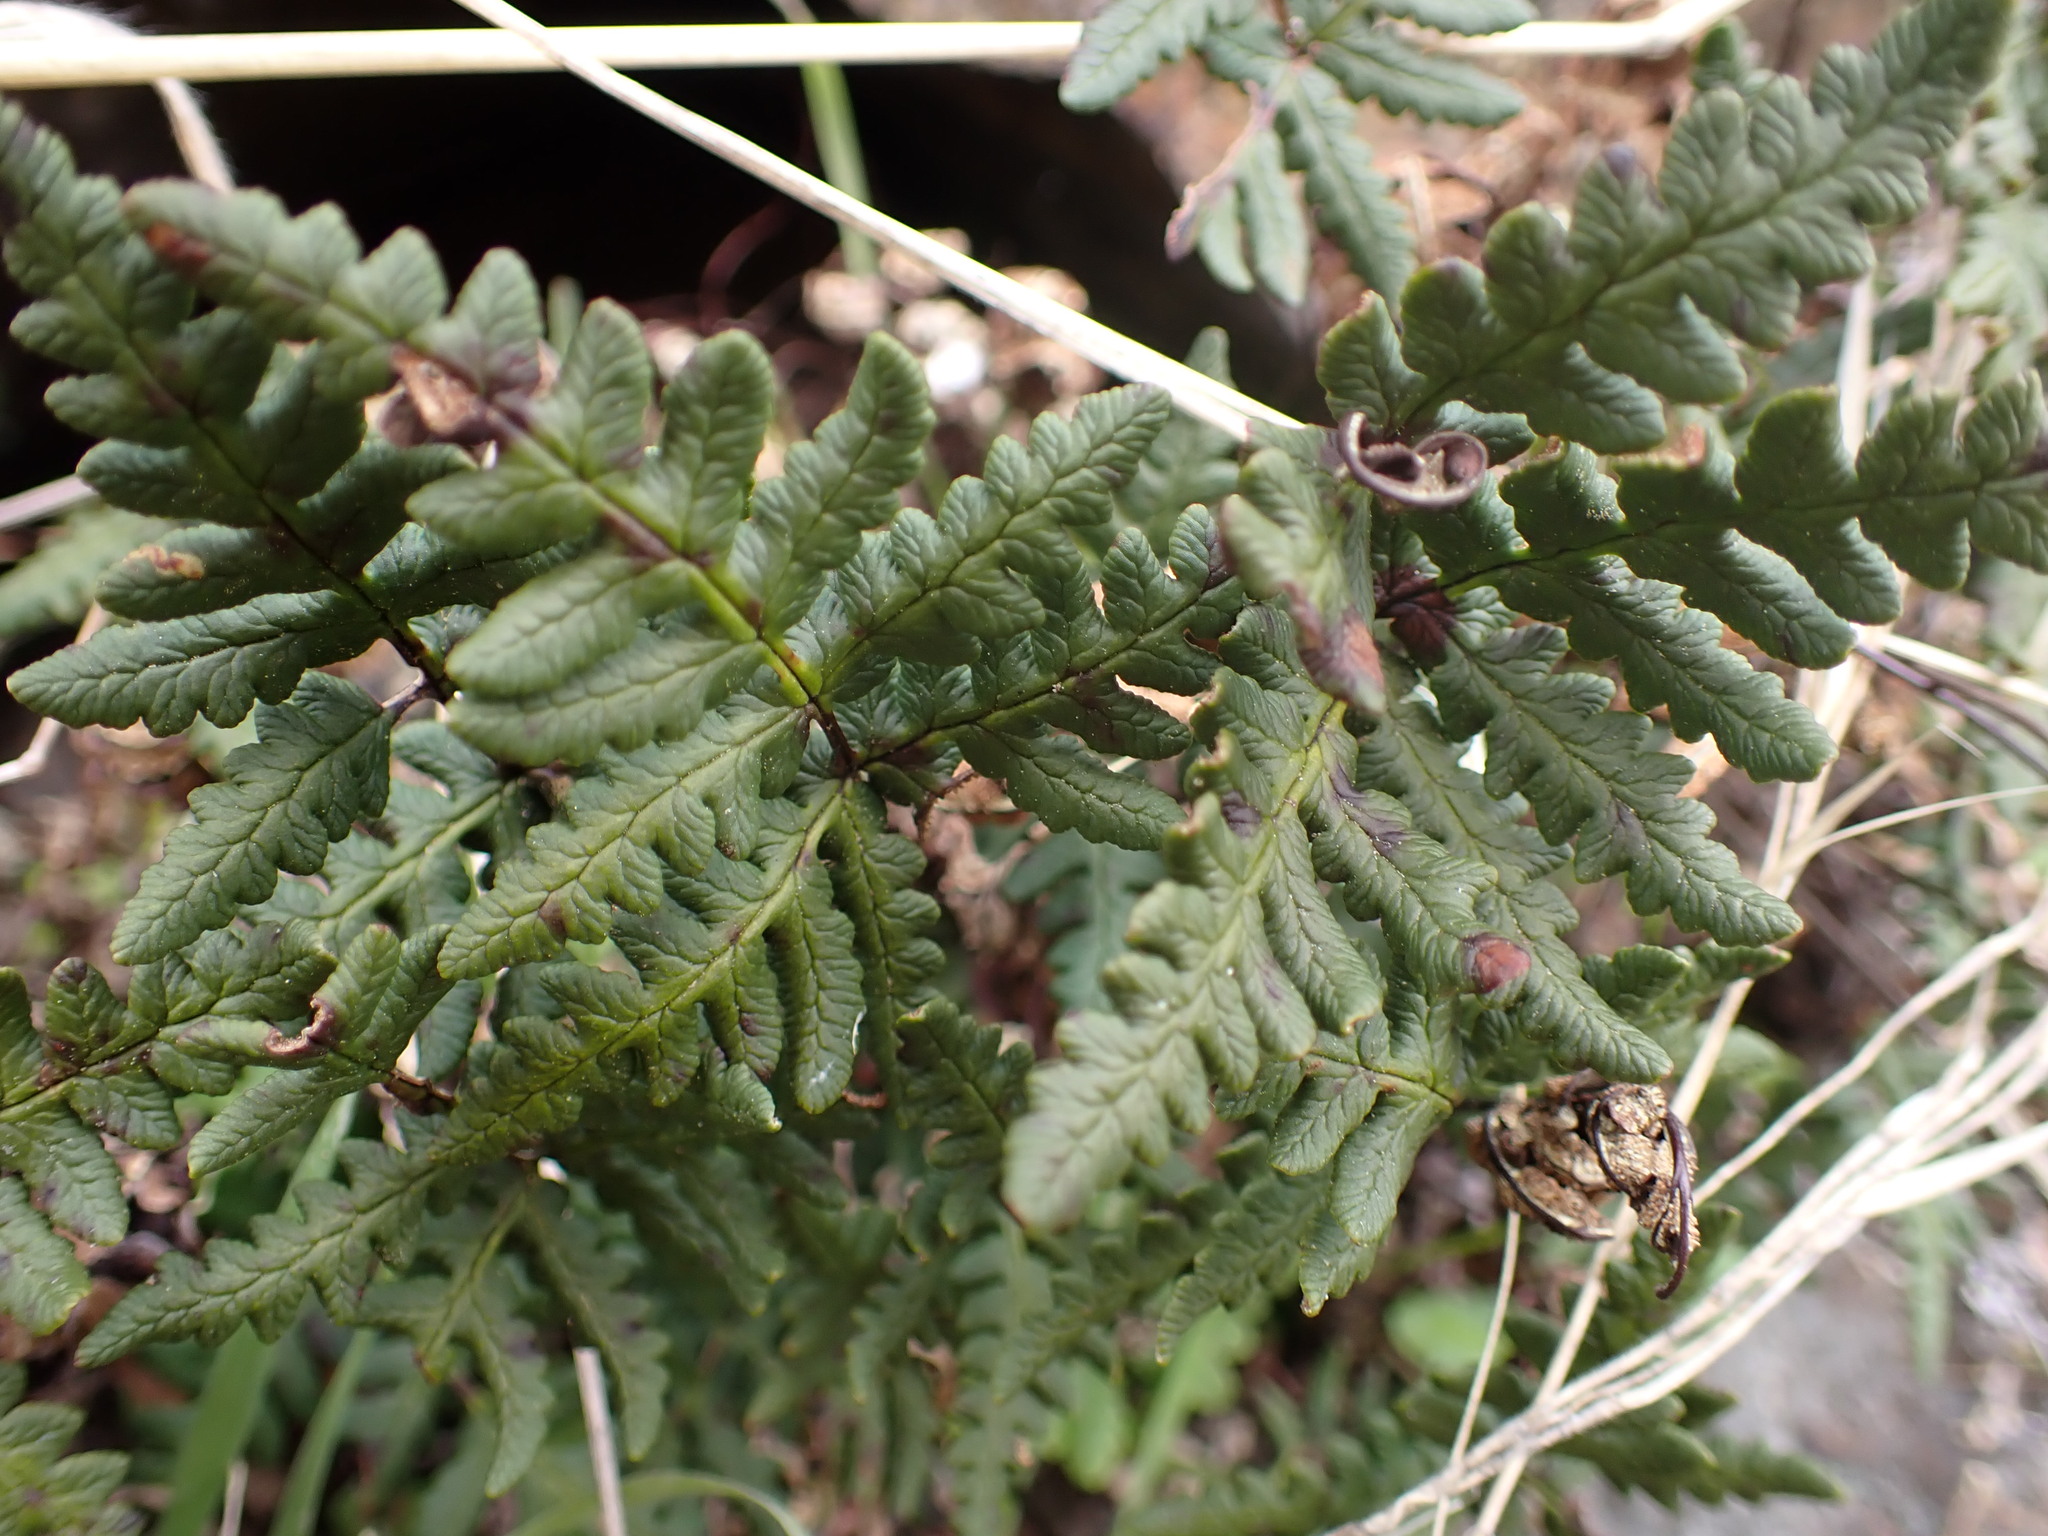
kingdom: Plantae
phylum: Tracheophyta
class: Polypodiopsida
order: Polypodiales
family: Pteridaceae
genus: Pentagramma
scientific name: Pentagramma triangularis
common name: Gold fern
